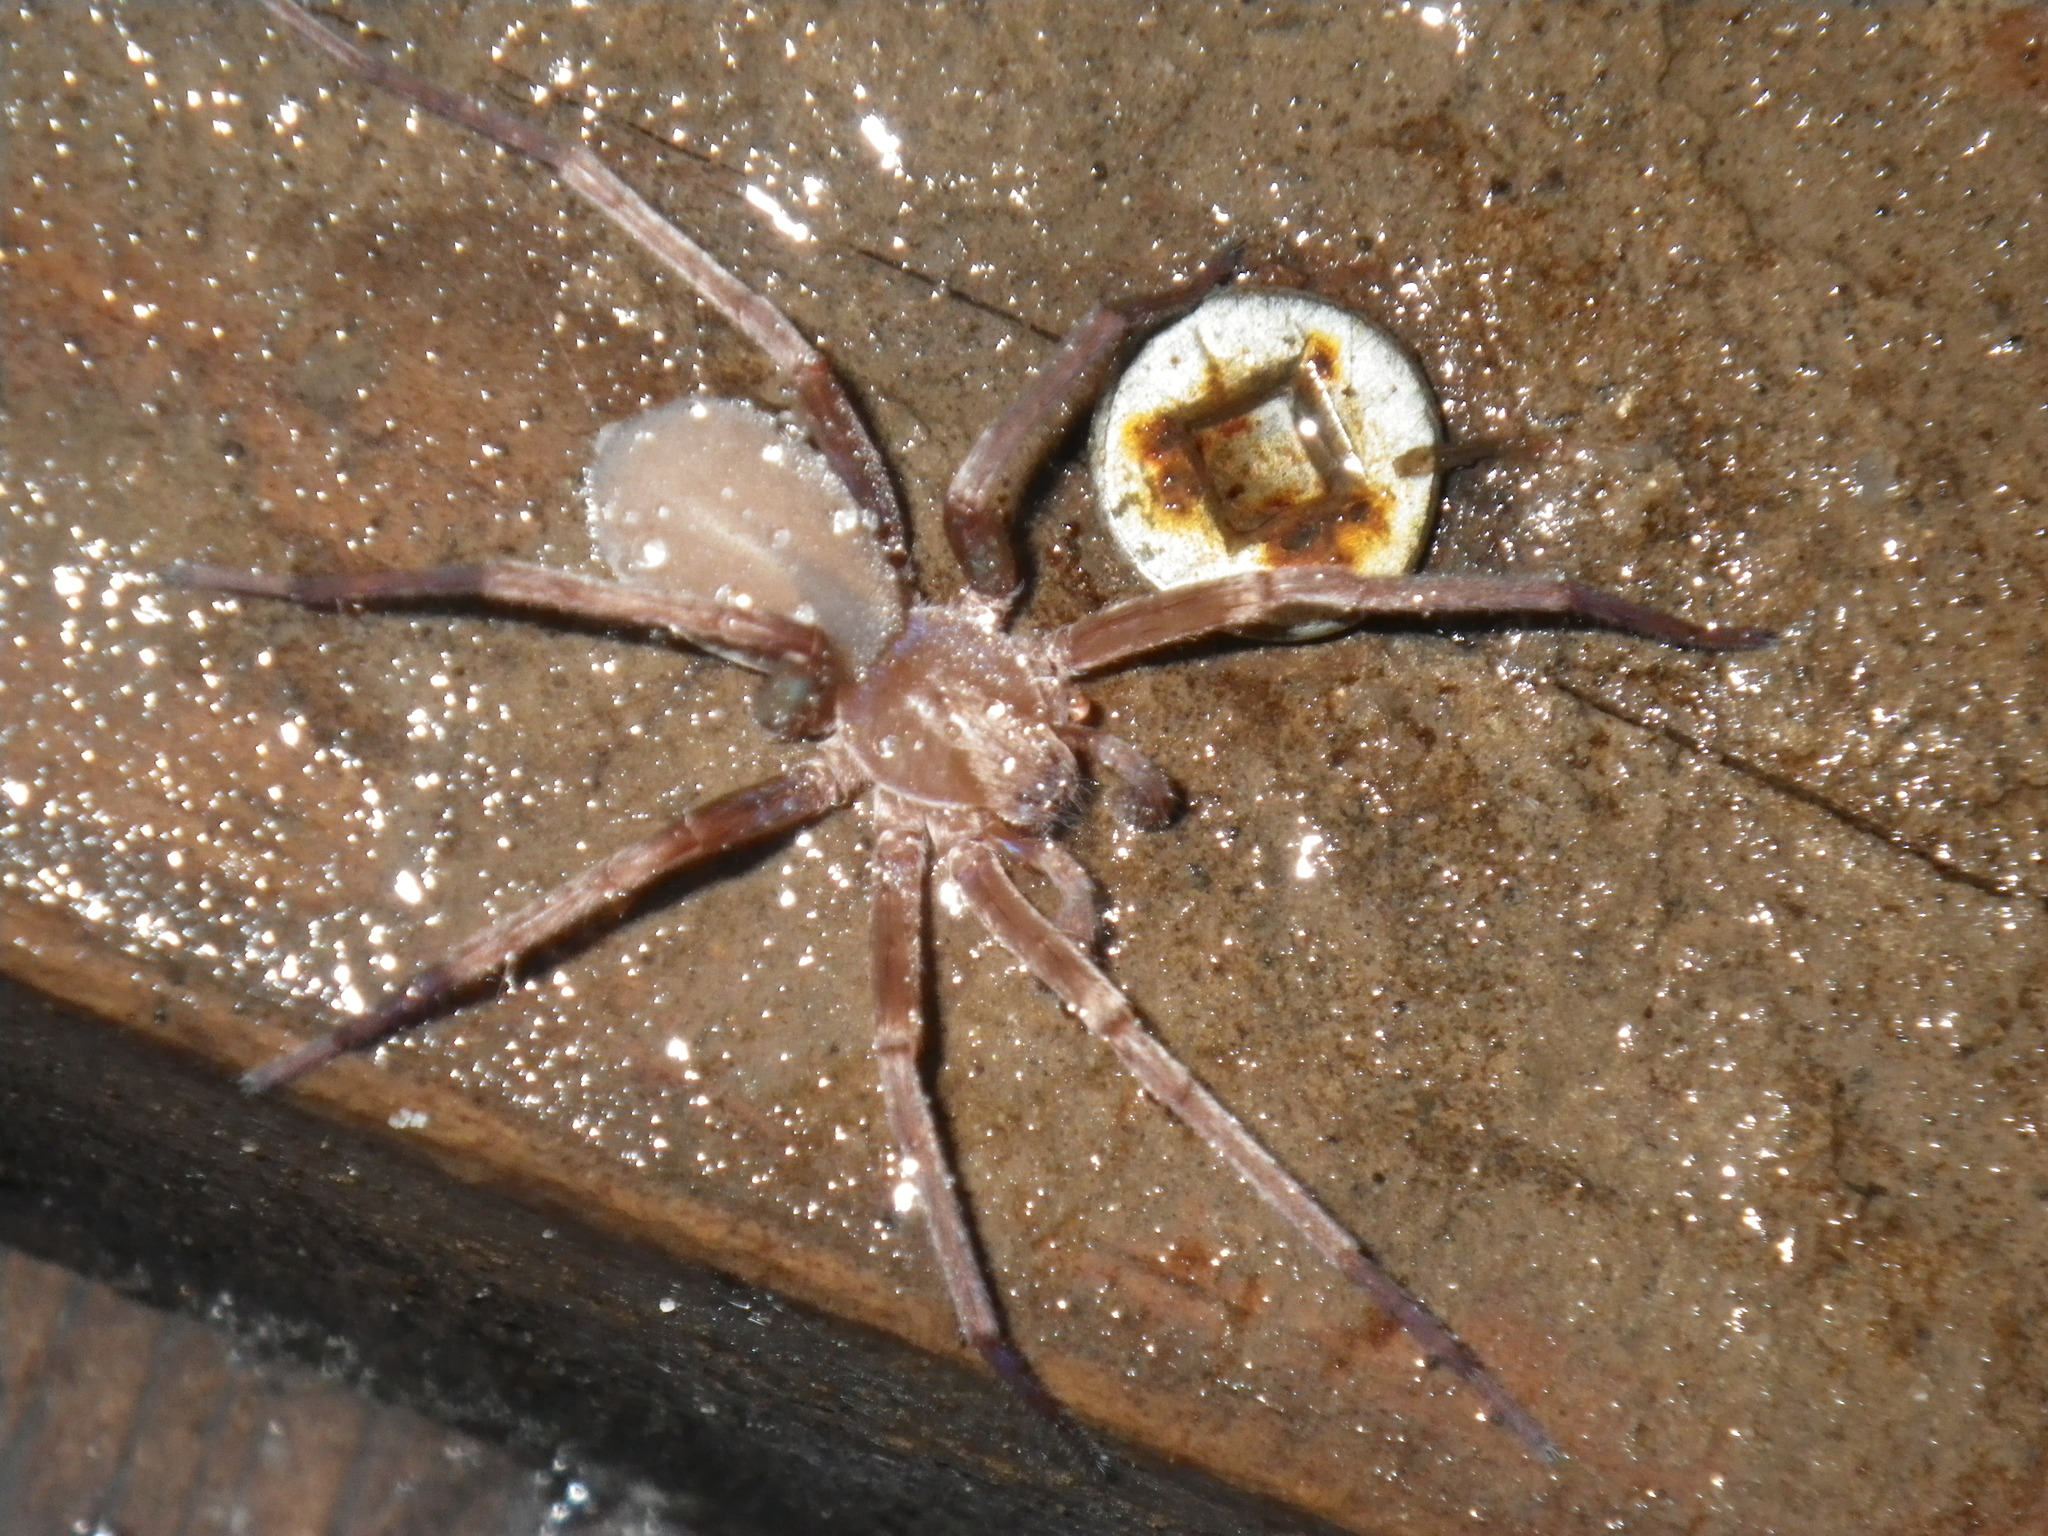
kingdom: Animalia
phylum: Arthropoda
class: Arachnida
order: Araneae
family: Zoropsidae
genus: Titiotus
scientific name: Titiotus
